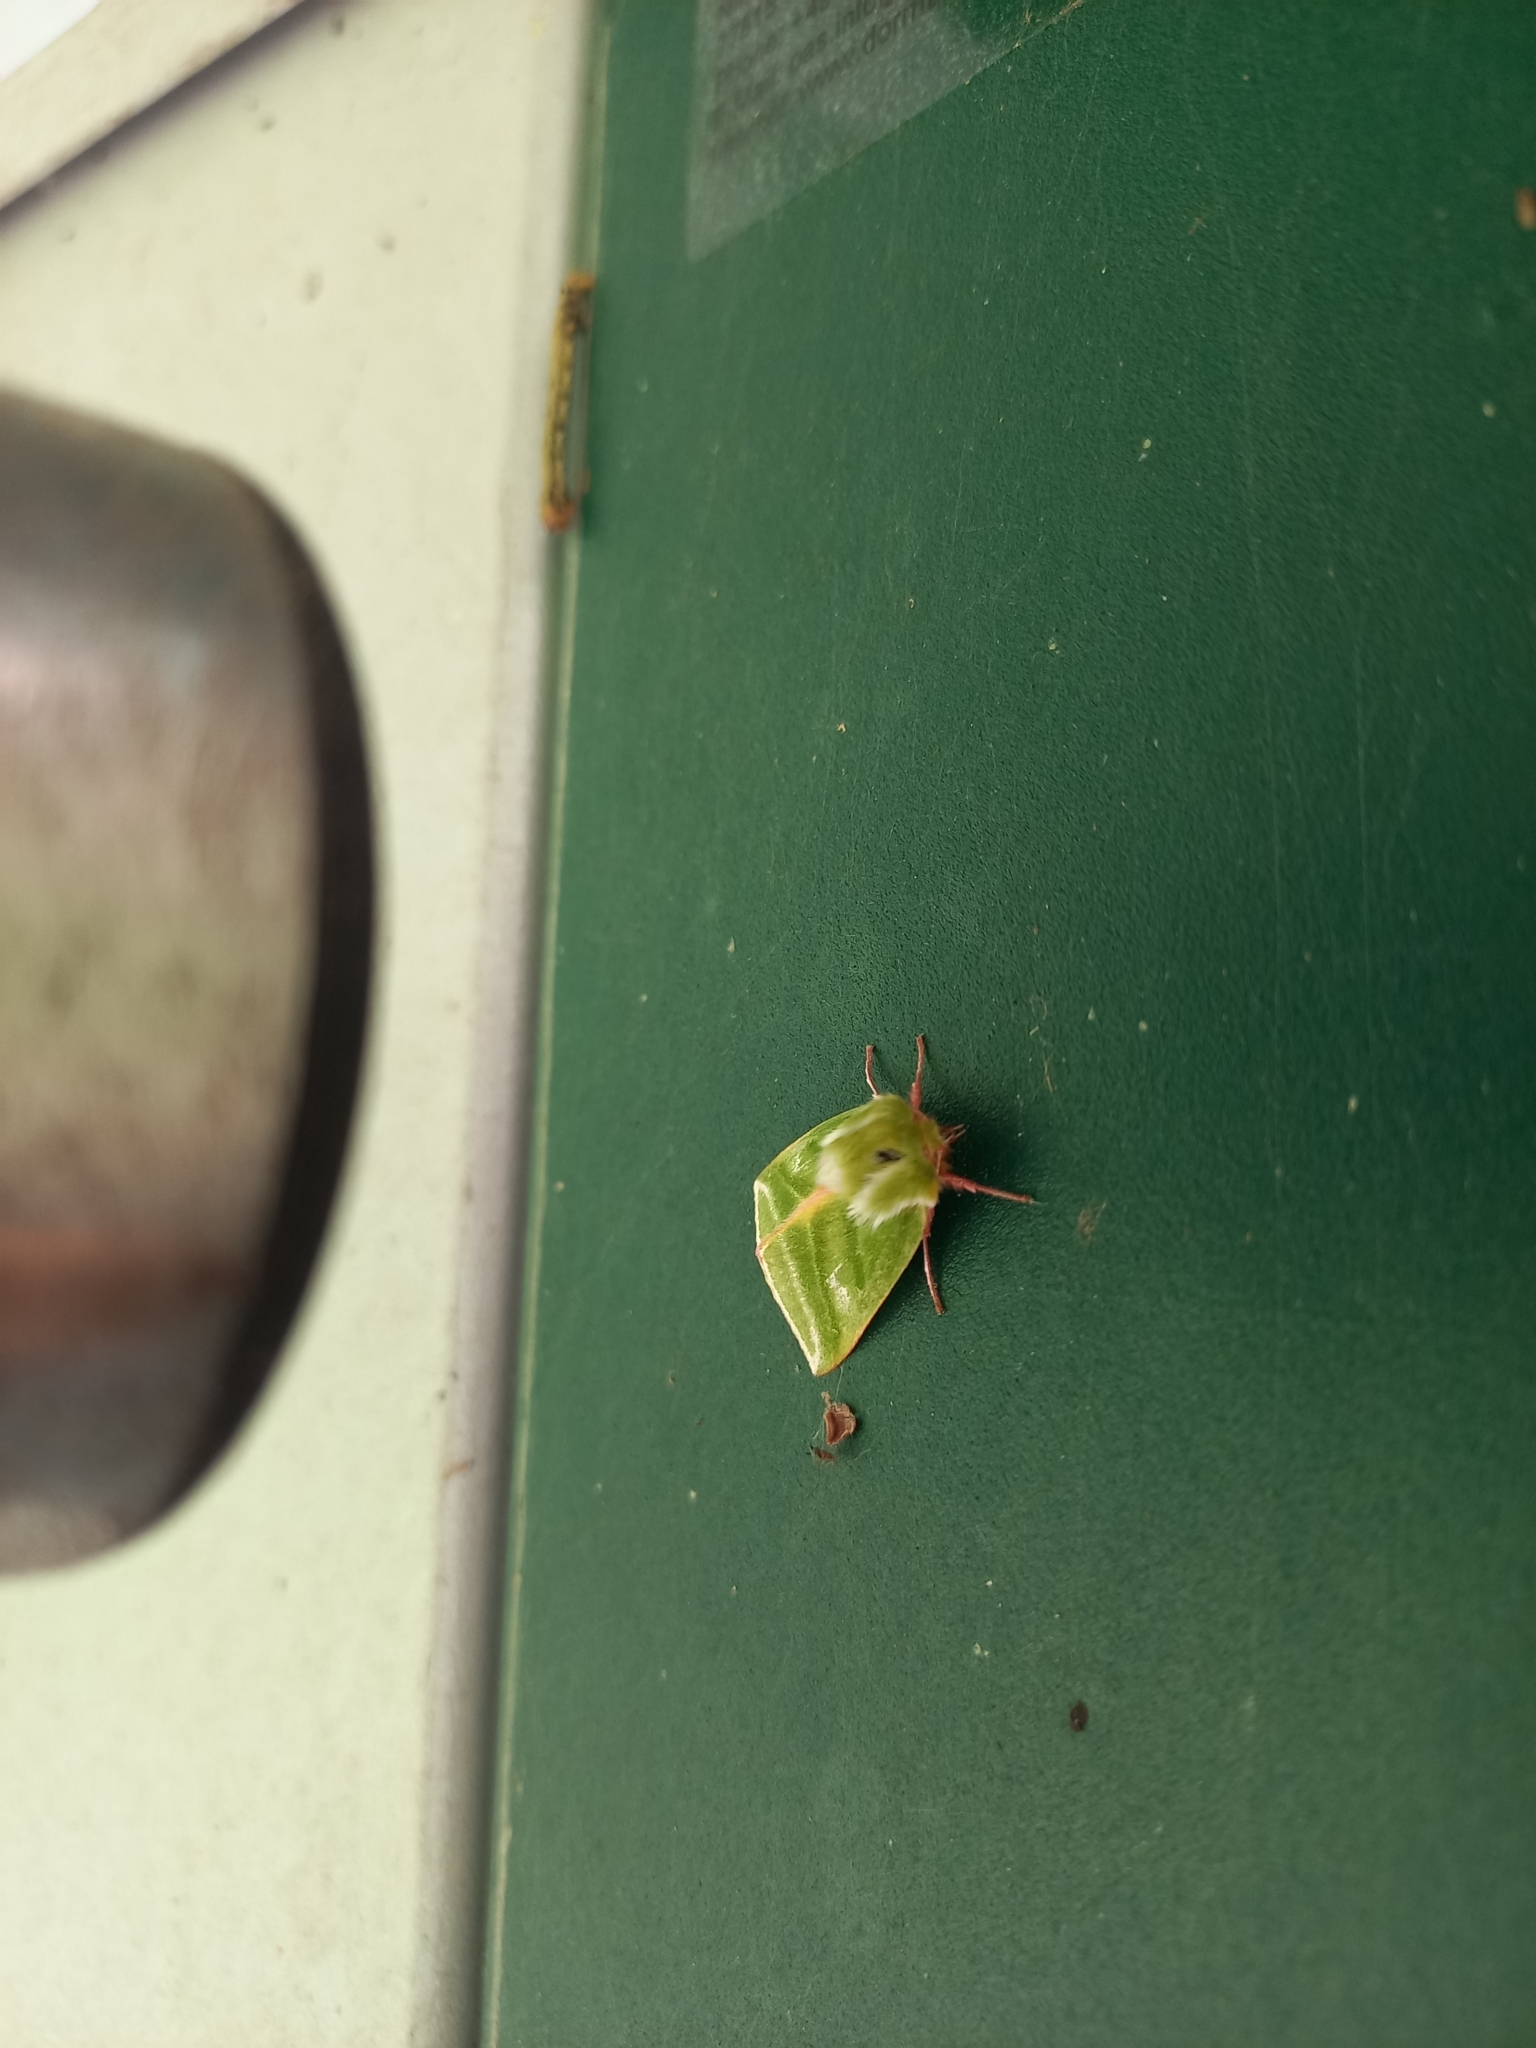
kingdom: Animalia
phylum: Arthropoda
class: Insecta
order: Lepidoptera
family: Nolidae
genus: Pseudoips
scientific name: Pseudoips prasinana
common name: Green silver-lines
